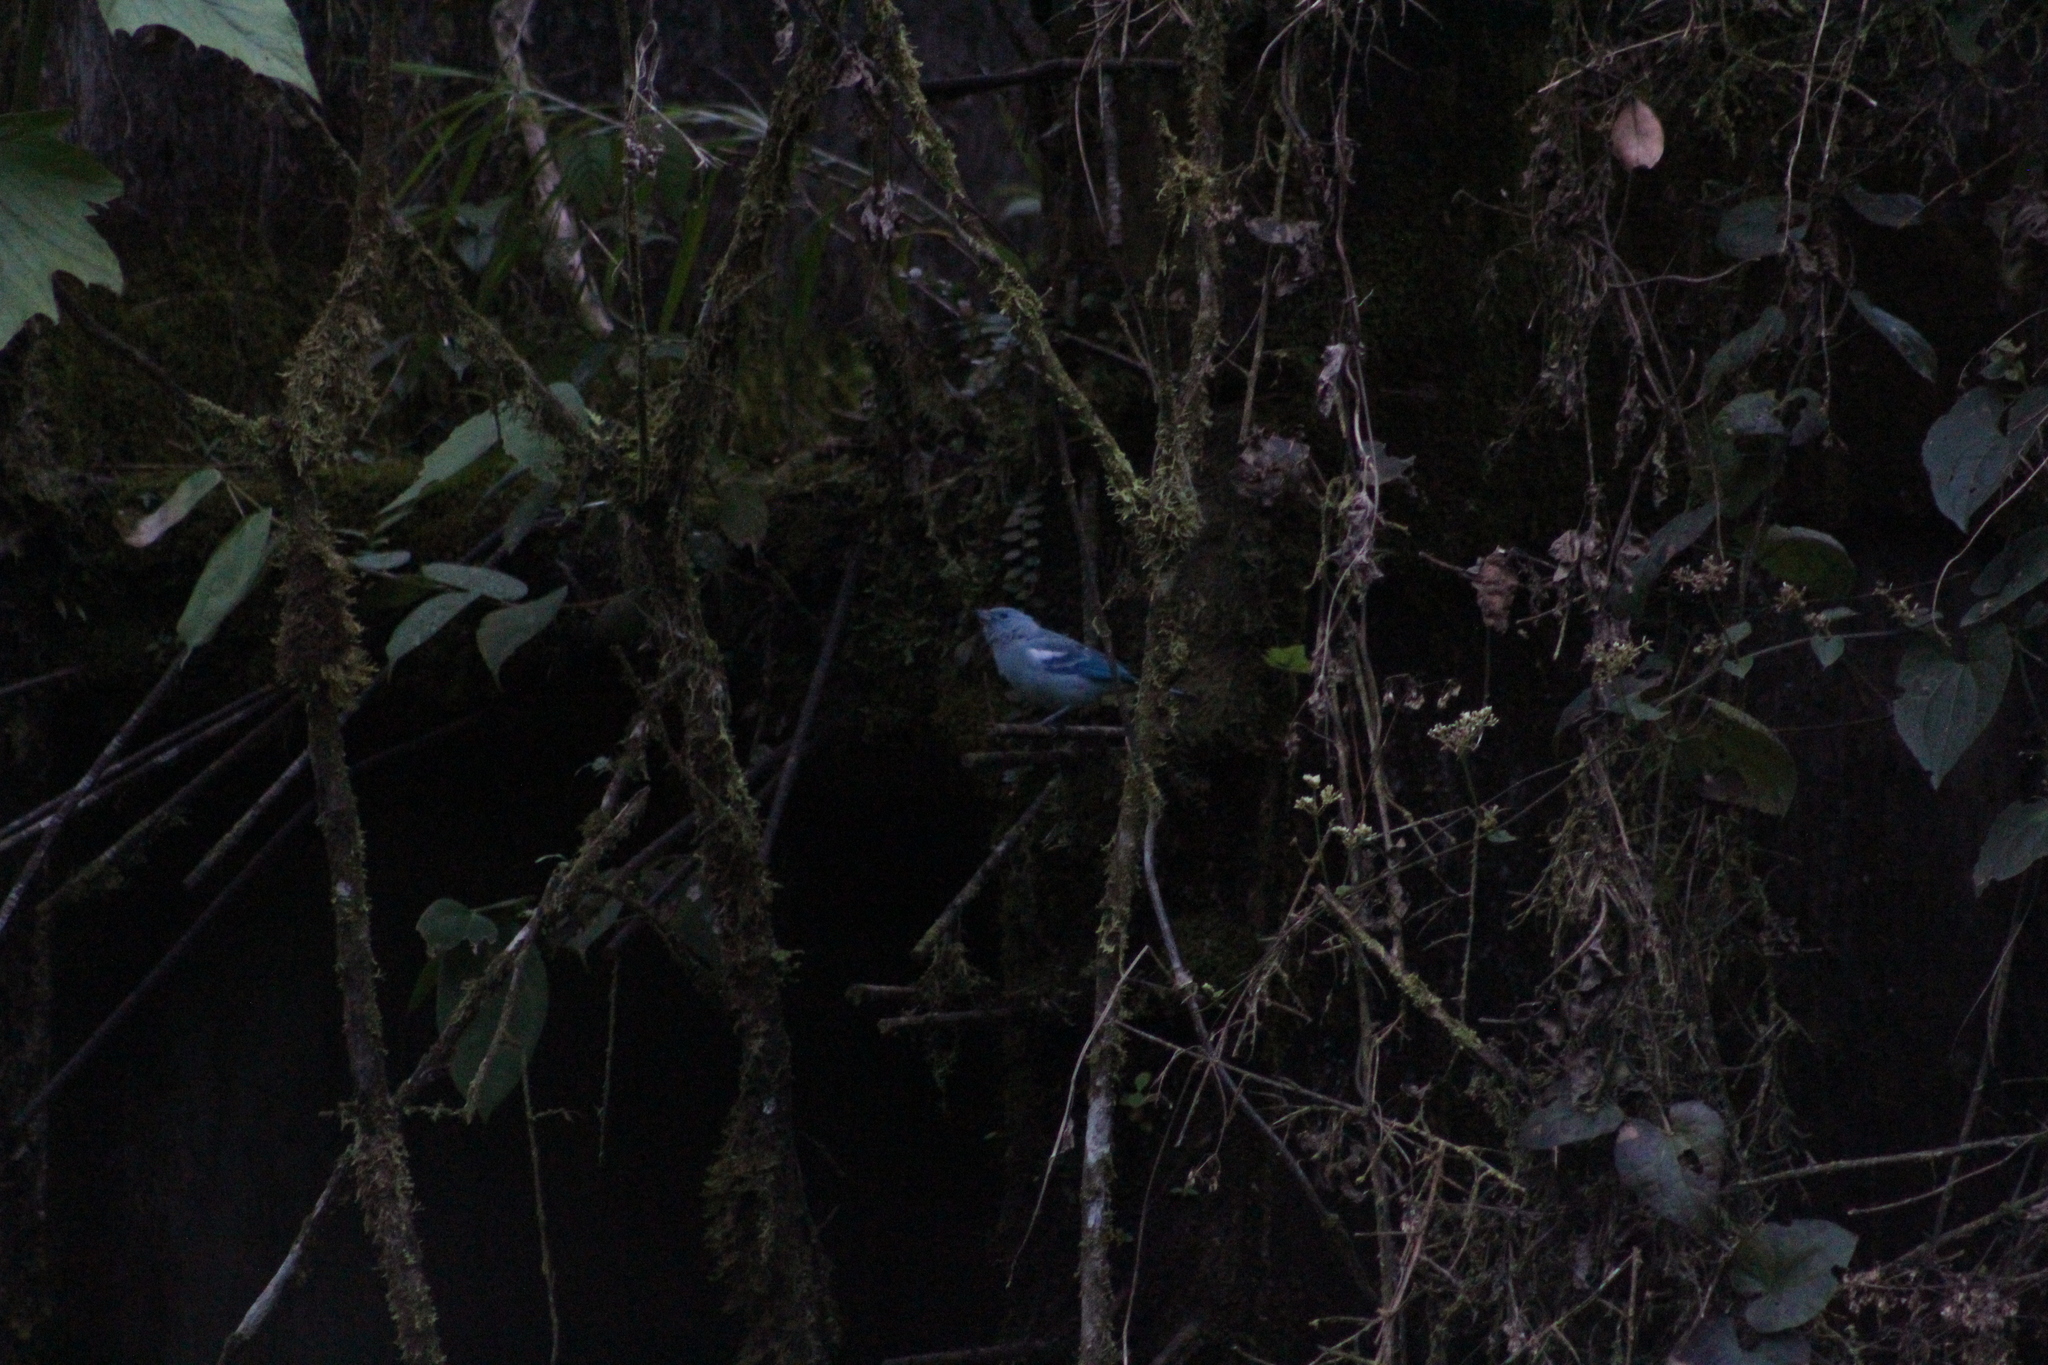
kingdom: Animalia
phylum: Chordata
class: Aves
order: Passeriformes
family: Thraupidae
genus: Thraupis
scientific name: Thraupis episcopus
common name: Blue-grey tanager
